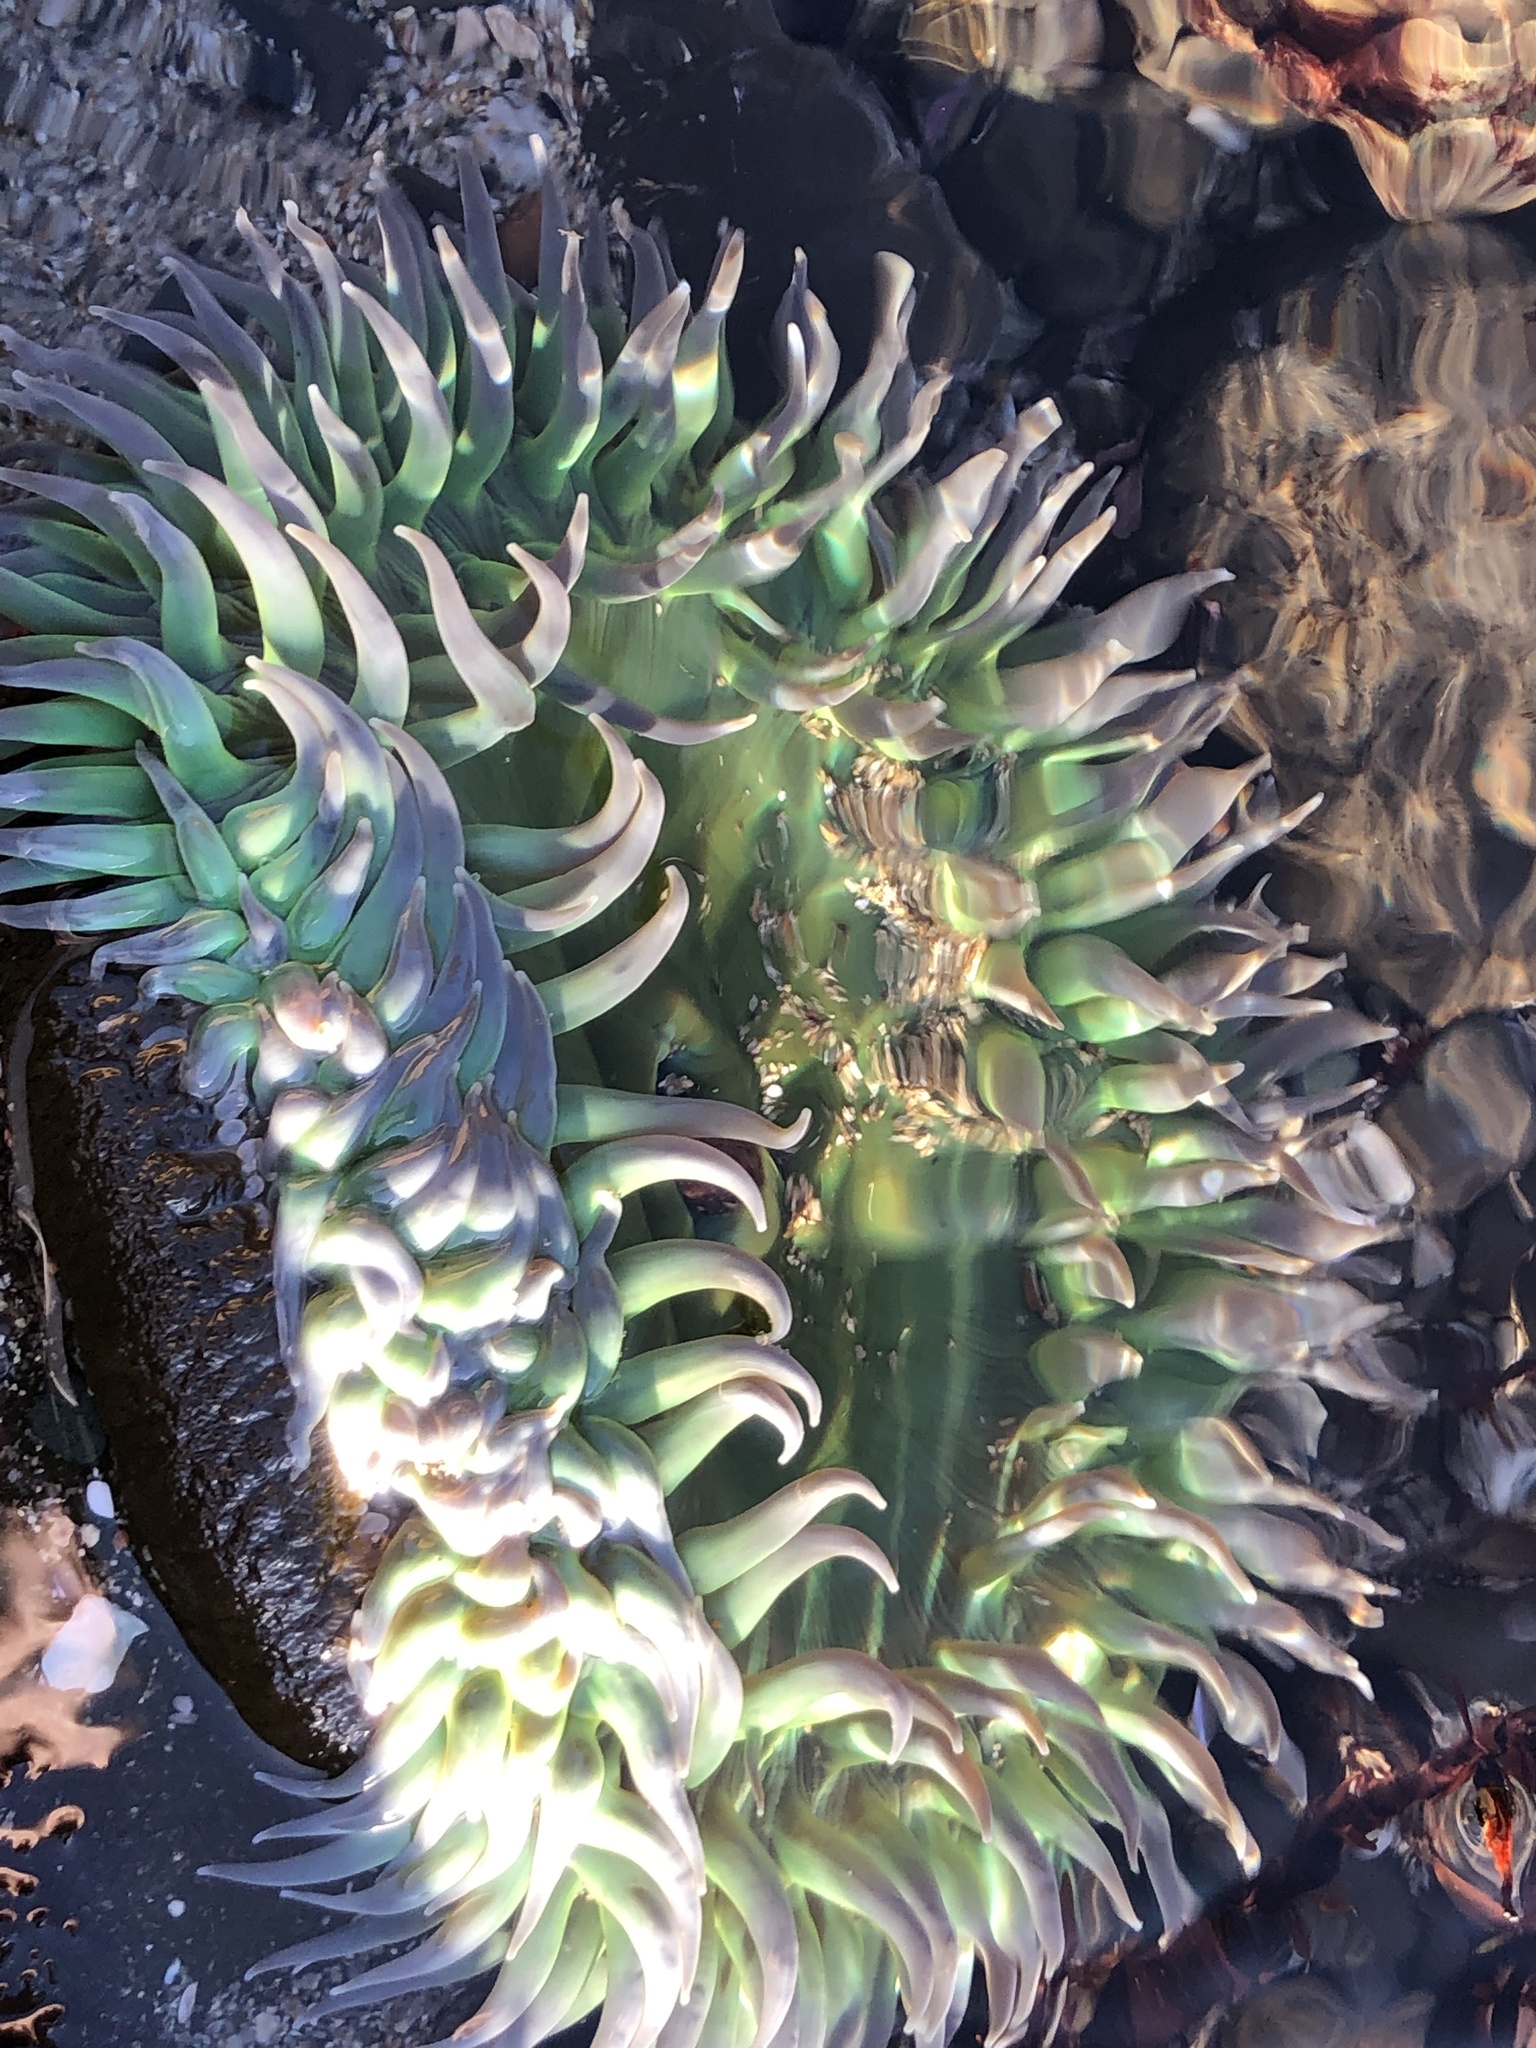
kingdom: Animalia
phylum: Cnidaria
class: Anthozoa
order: Actiniaria
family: Actiniidae
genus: Anthopleura
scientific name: Anthopleura xanthogrammica
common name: Giant green anemone
